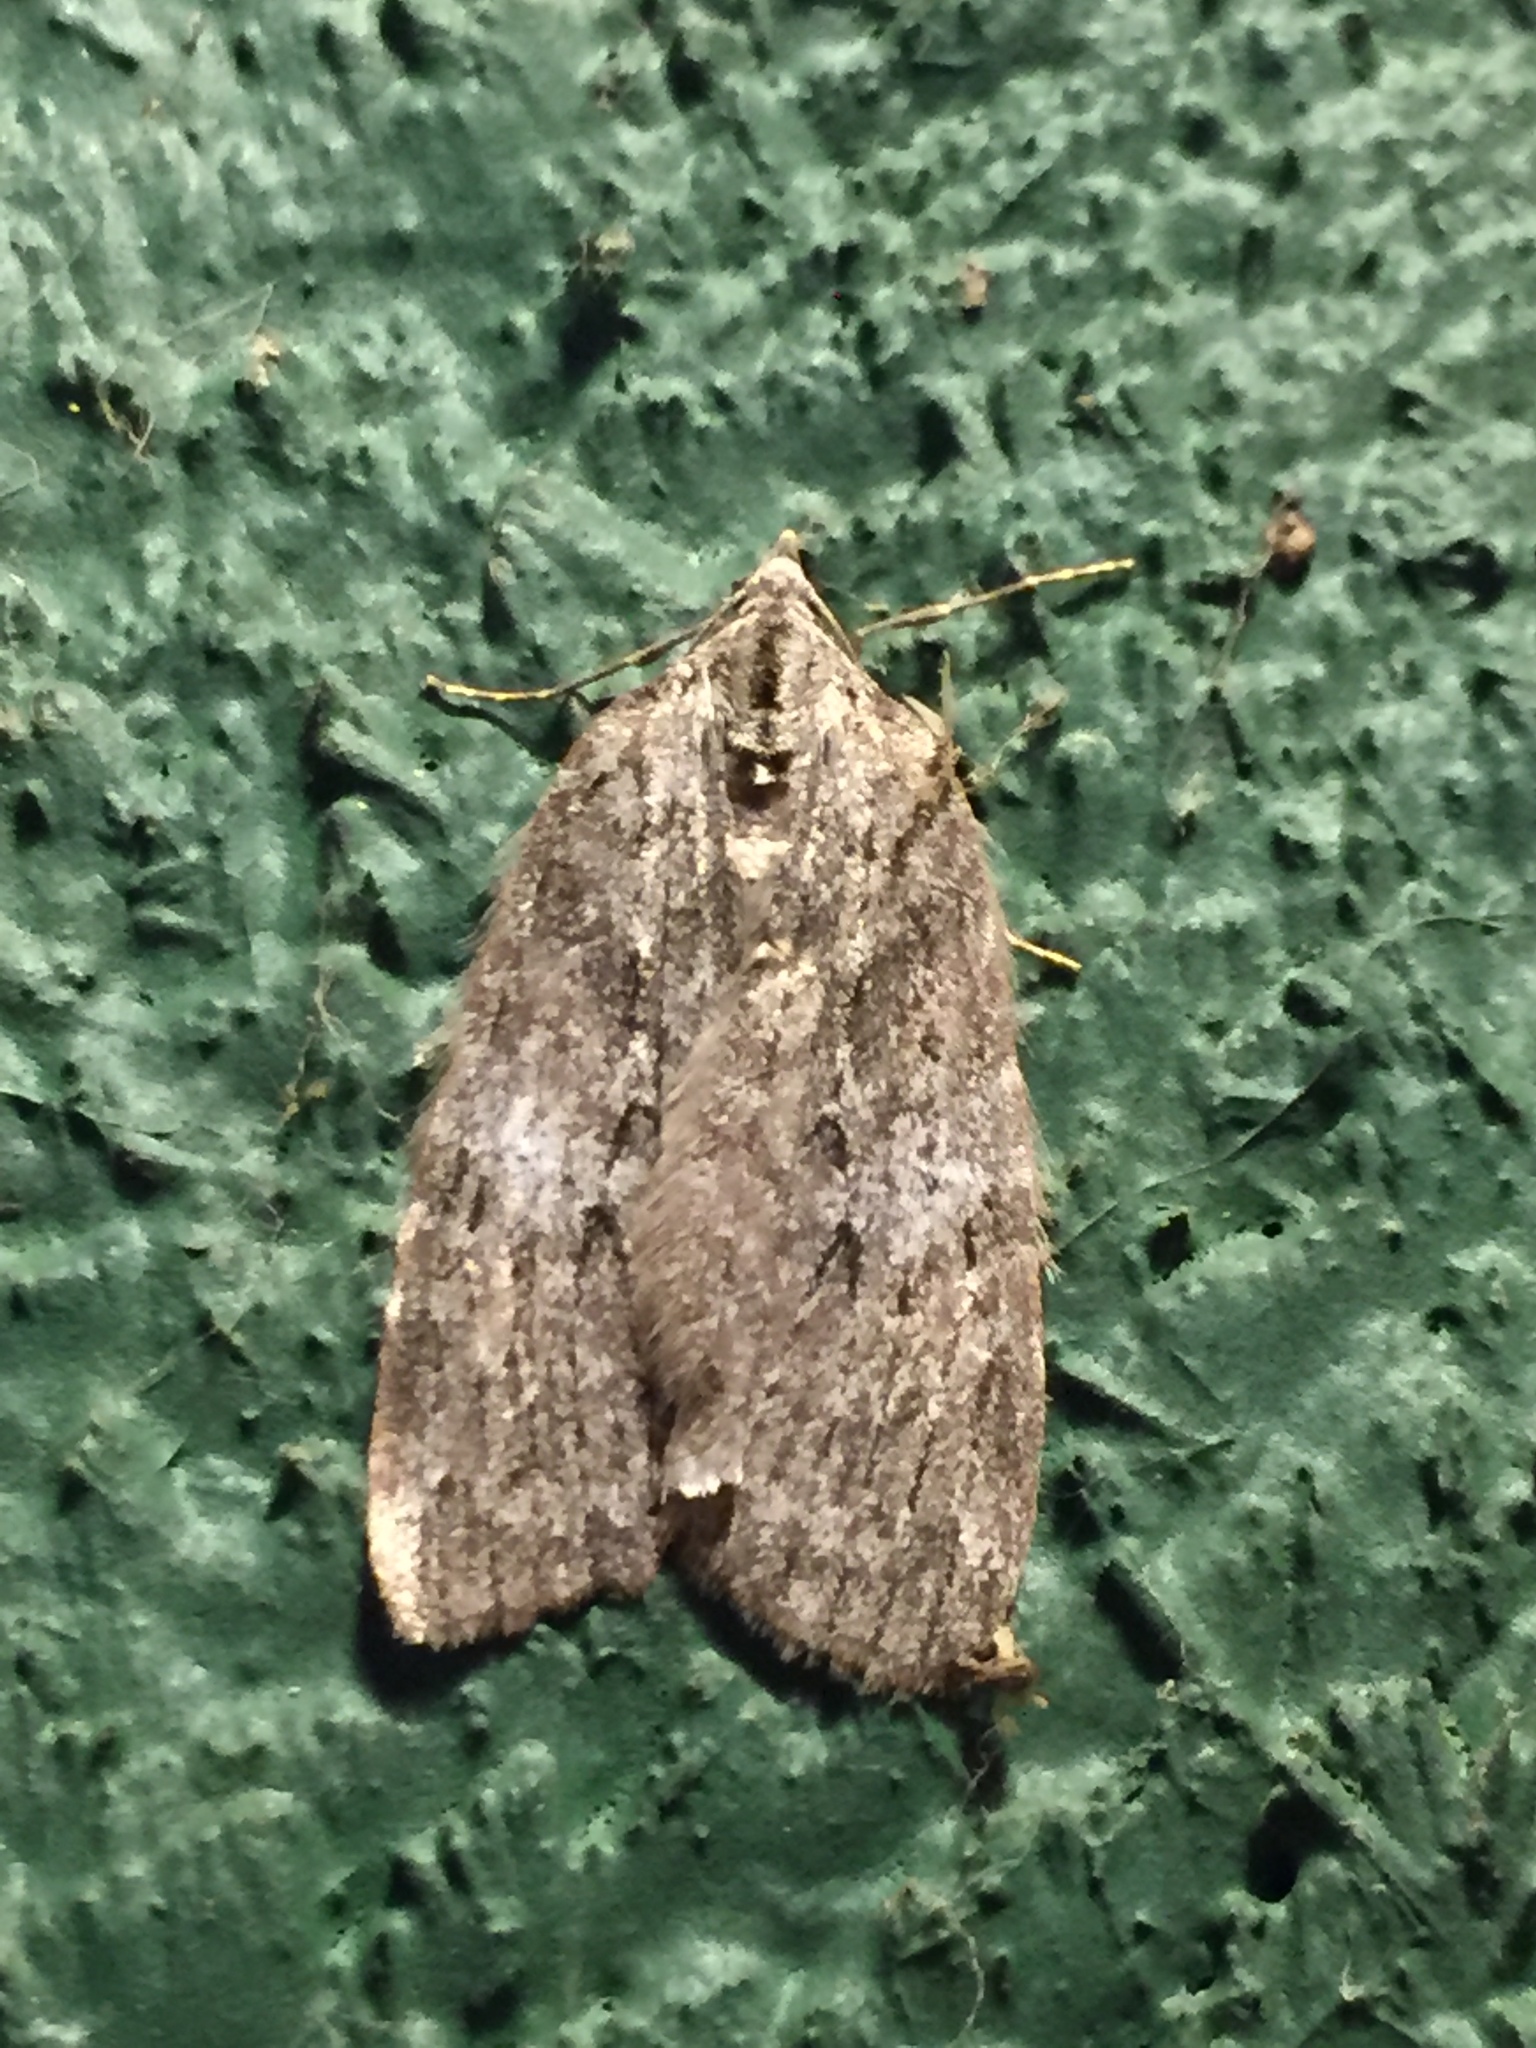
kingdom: Animalia
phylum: Arthropoda
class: Insecta
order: Lepidoptera
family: Geometridae
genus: Hydriomena
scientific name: Hydriomena manzanita
